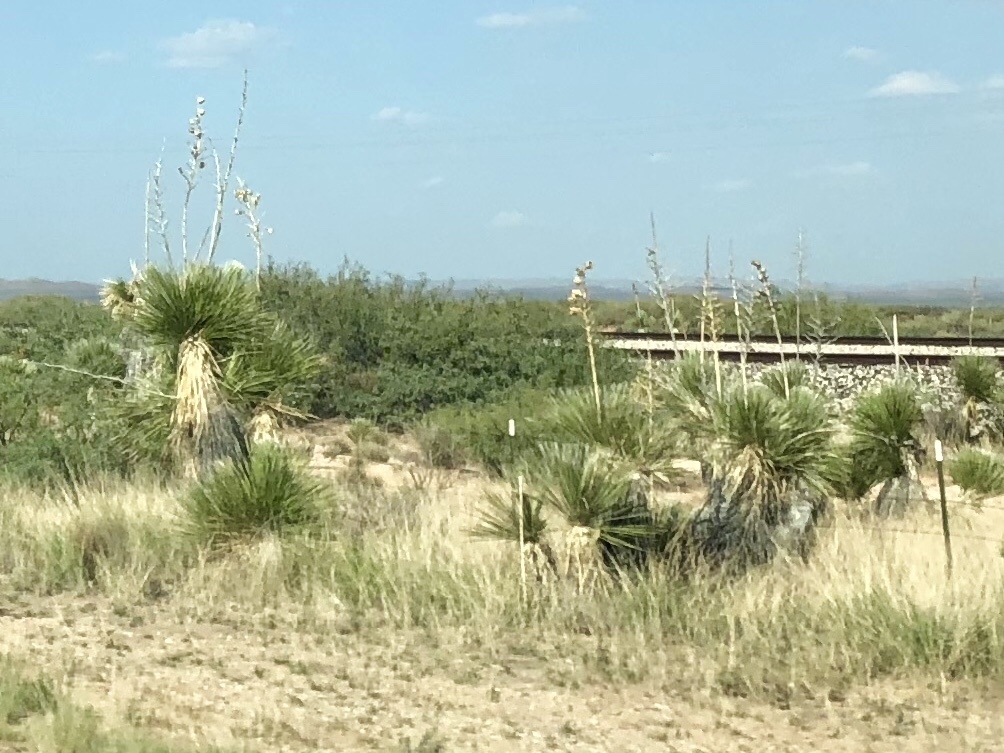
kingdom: Plantae
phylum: Tracheophyta
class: Liliopsida
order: Asparagales
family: Asparagaceae
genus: Yucca
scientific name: Yucca elata
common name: Palmella
